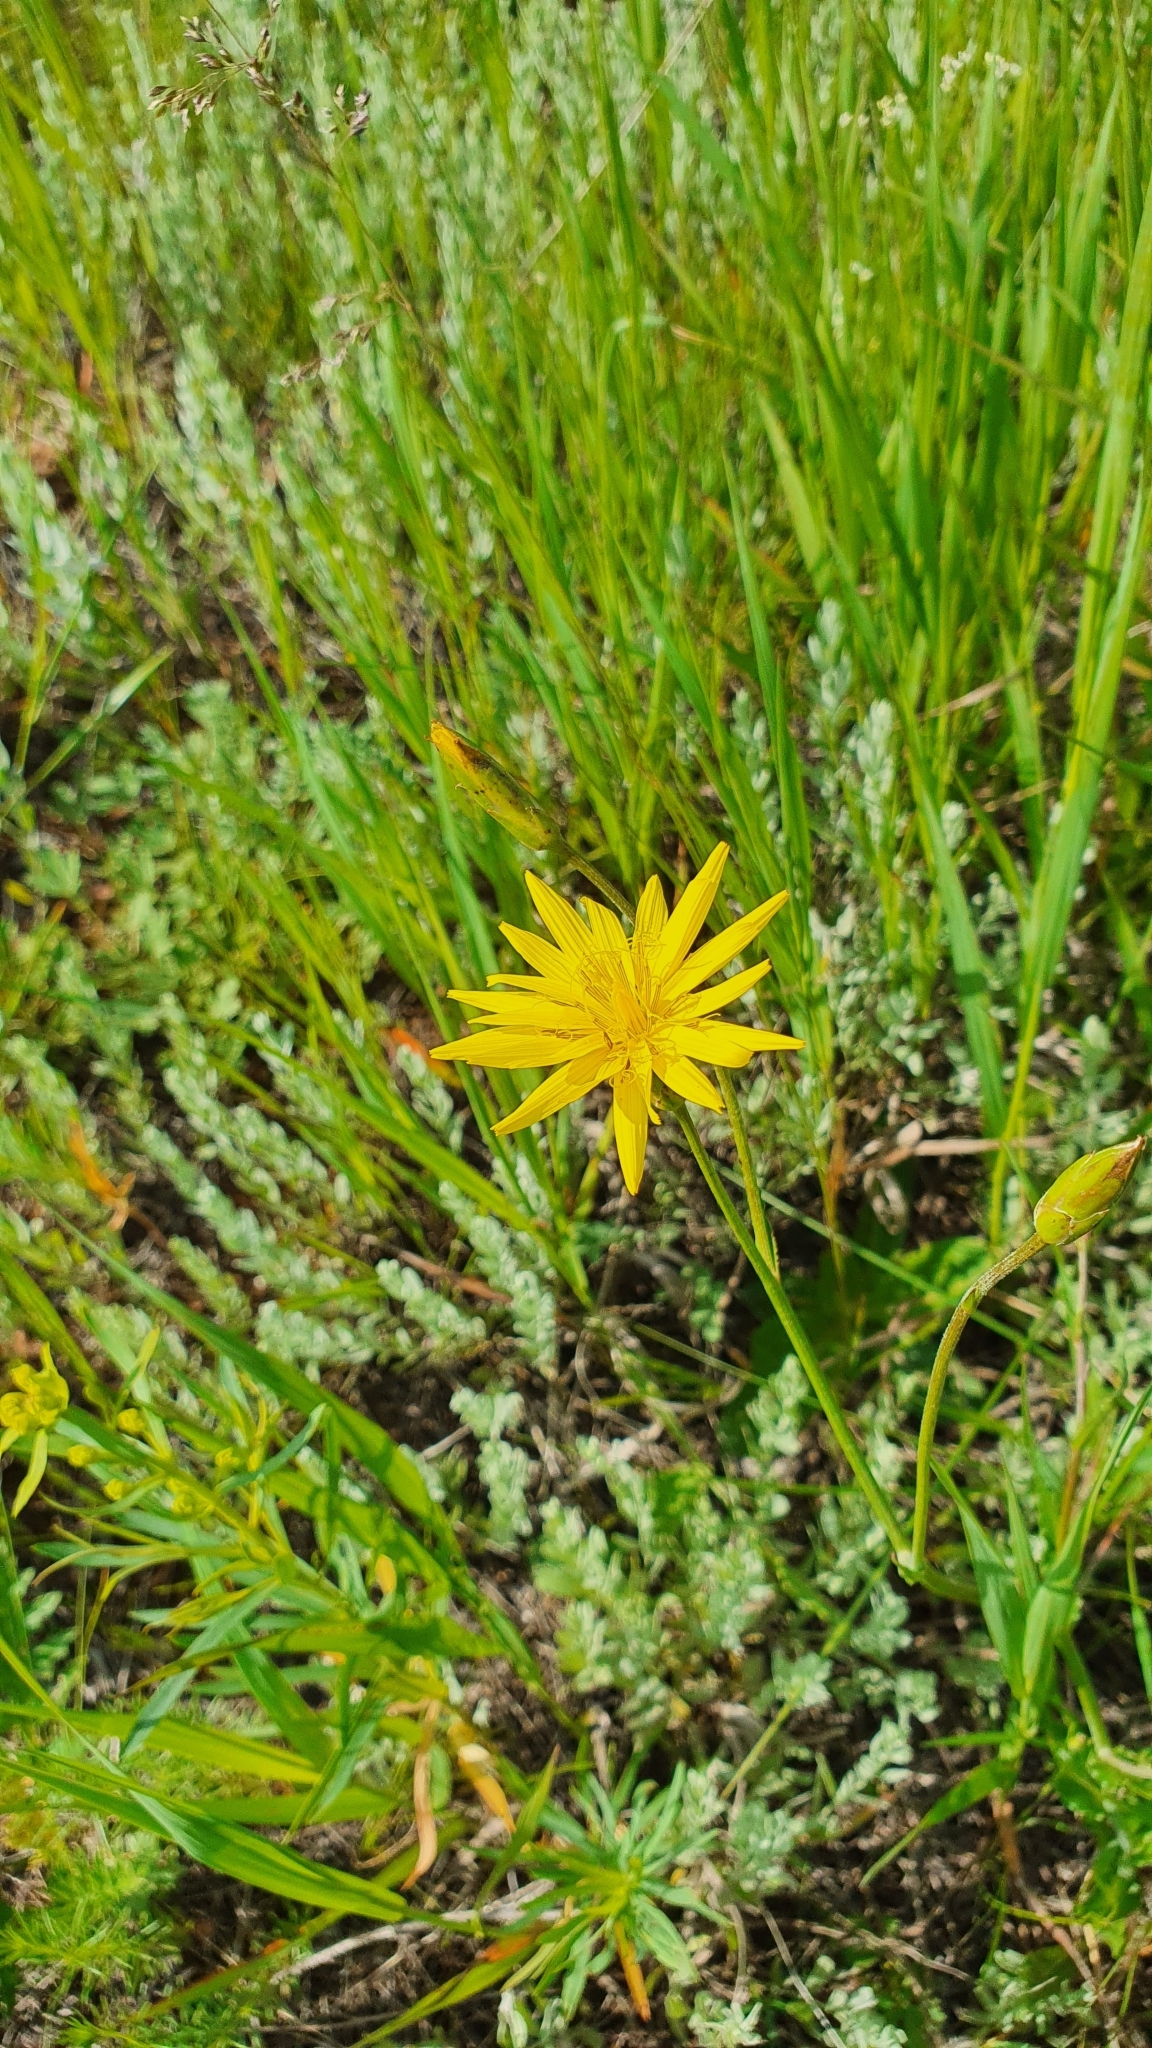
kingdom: Plantae
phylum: Tracheophyta
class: Magnoliopsida
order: Asterales
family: Asteraceae
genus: Pseudopodospermum
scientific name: Pseudopodospermum strictum
